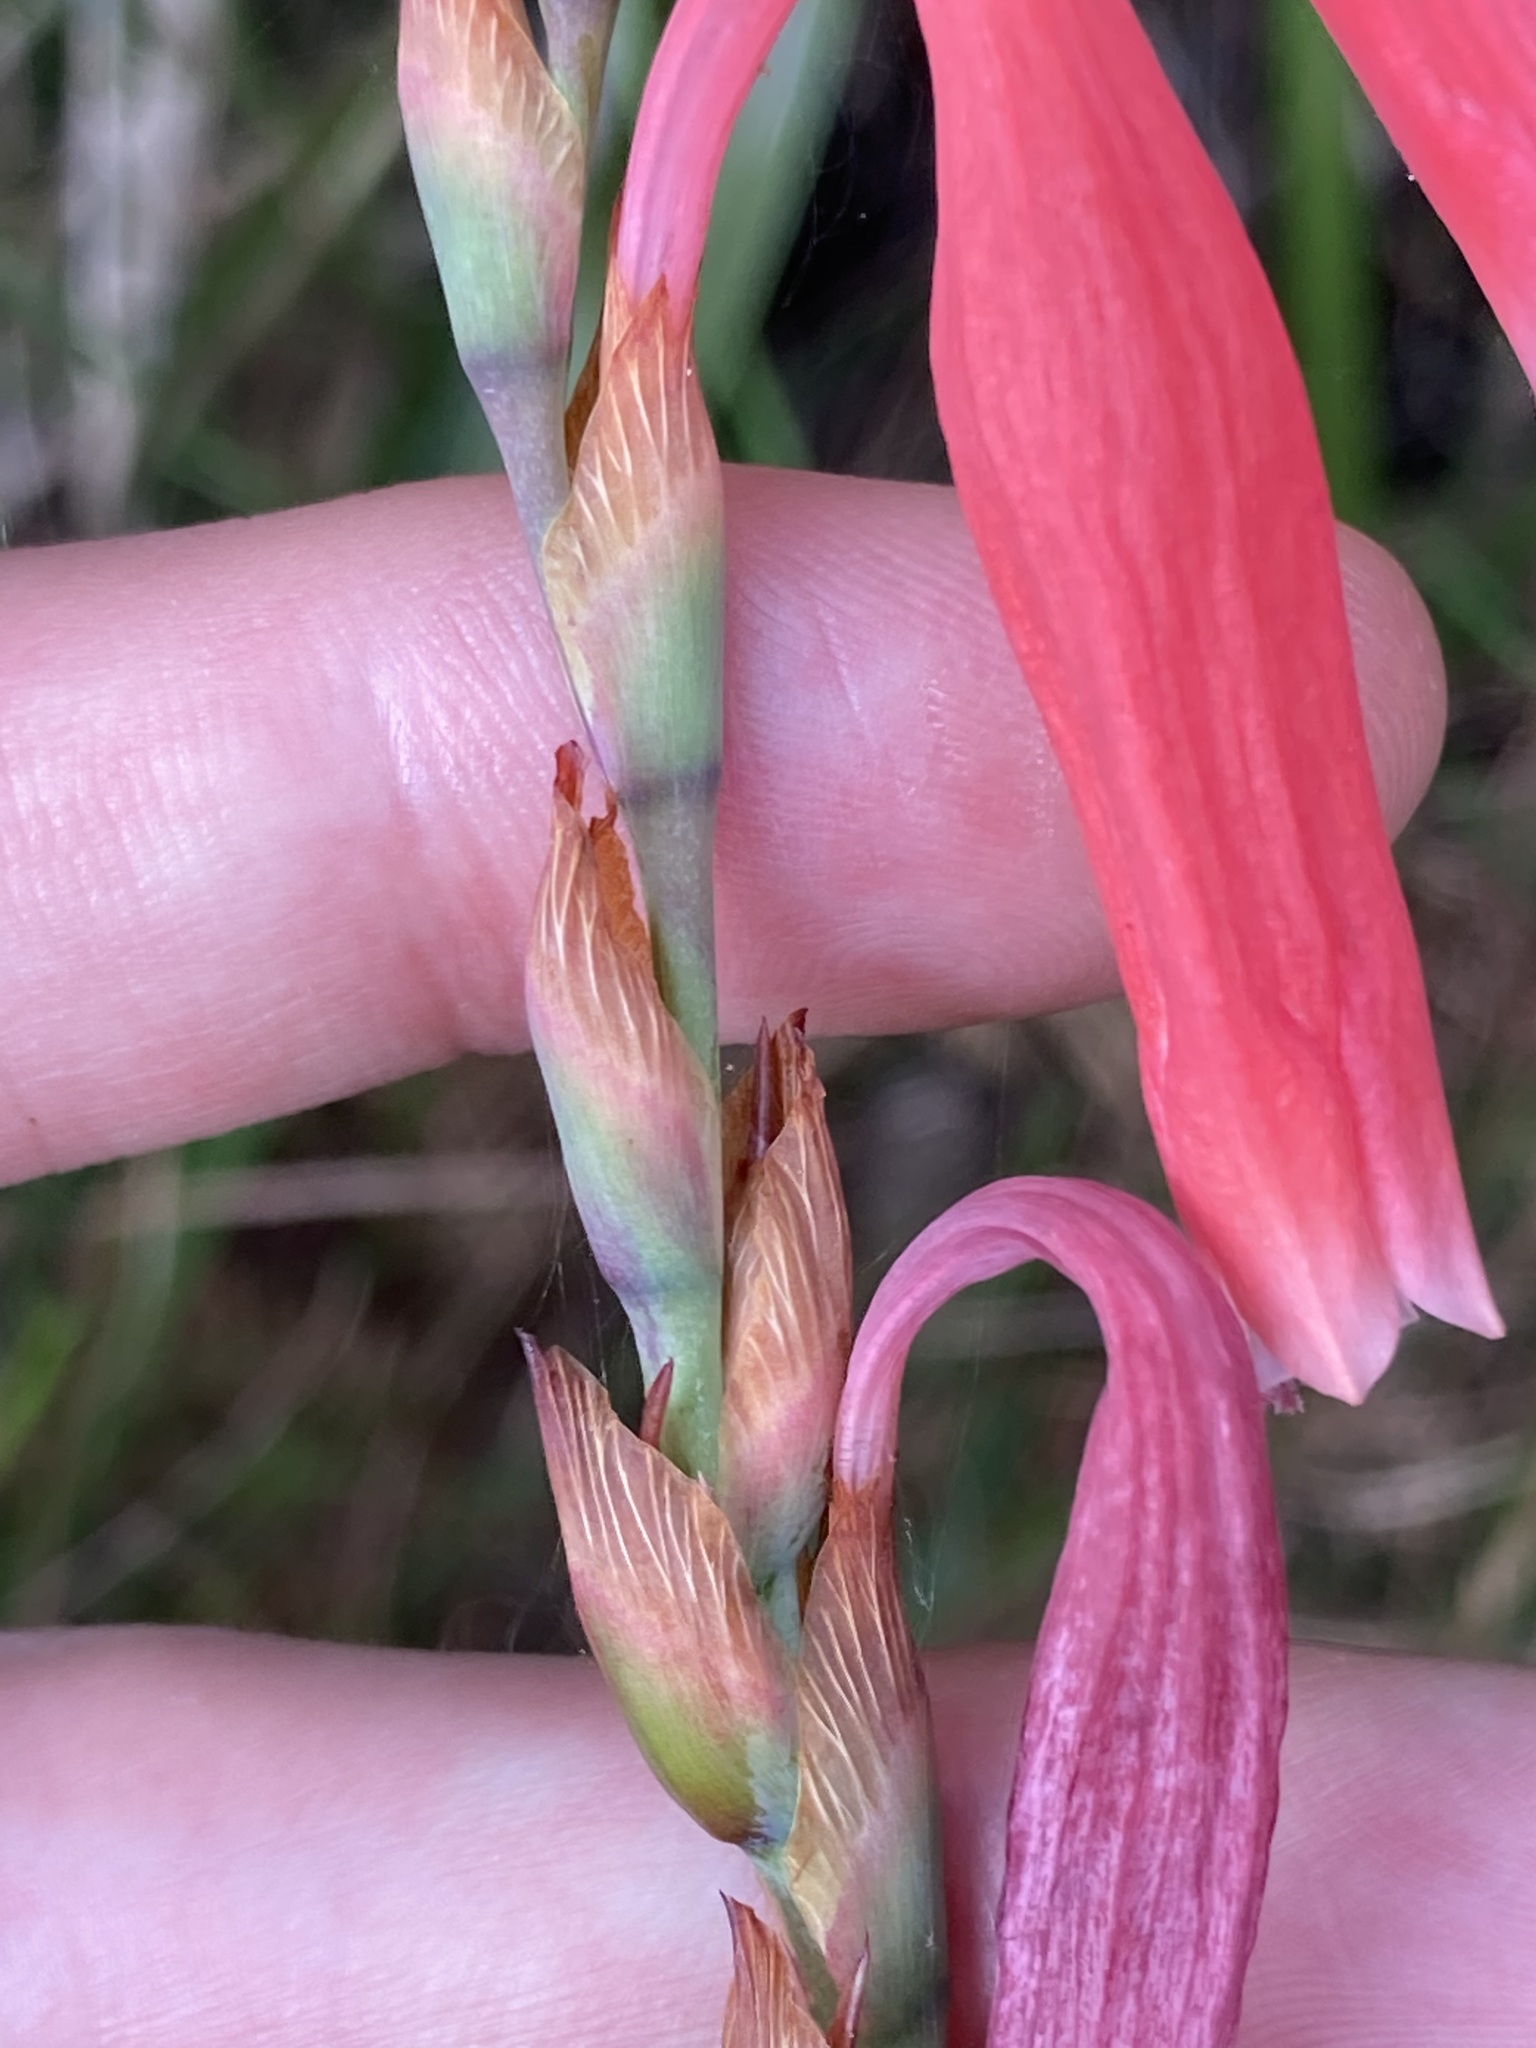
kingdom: Plantae
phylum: Tracheophyta
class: Liliopsida
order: Asparagales
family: Iridaceae
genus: Watsonia
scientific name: Watsonia aletroides
